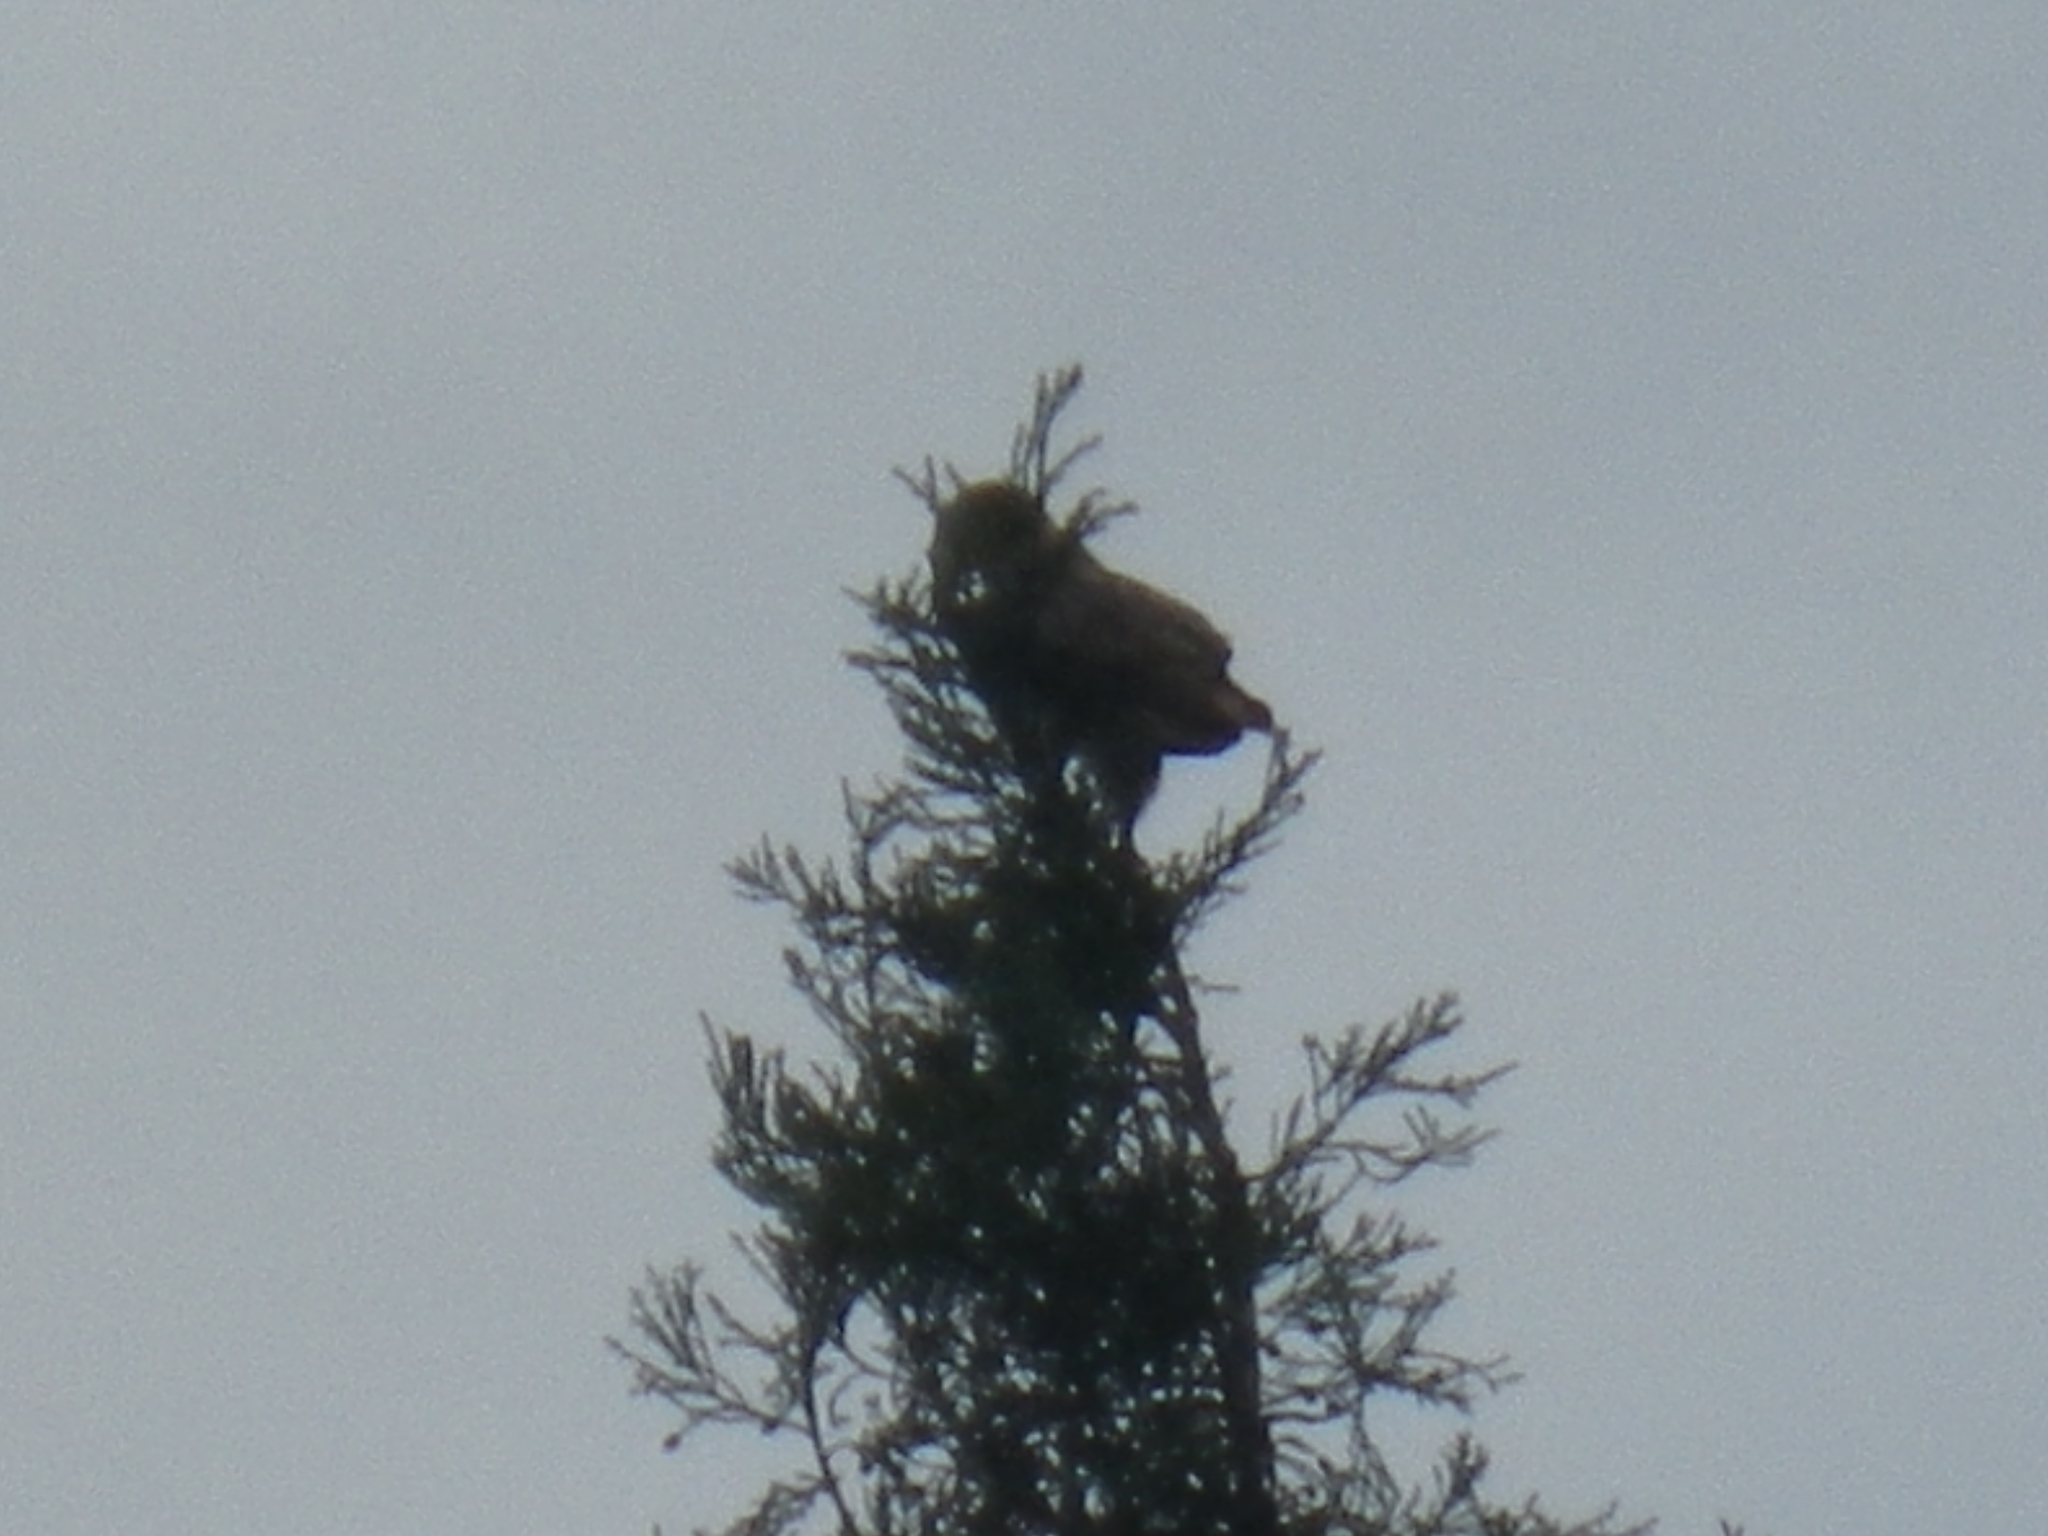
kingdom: Animalia
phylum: Chordata
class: Aves
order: Accipitriformes
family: Accipitridae
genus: Buteo
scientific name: Buteo jamaicensis
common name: Red-tailed hawk
